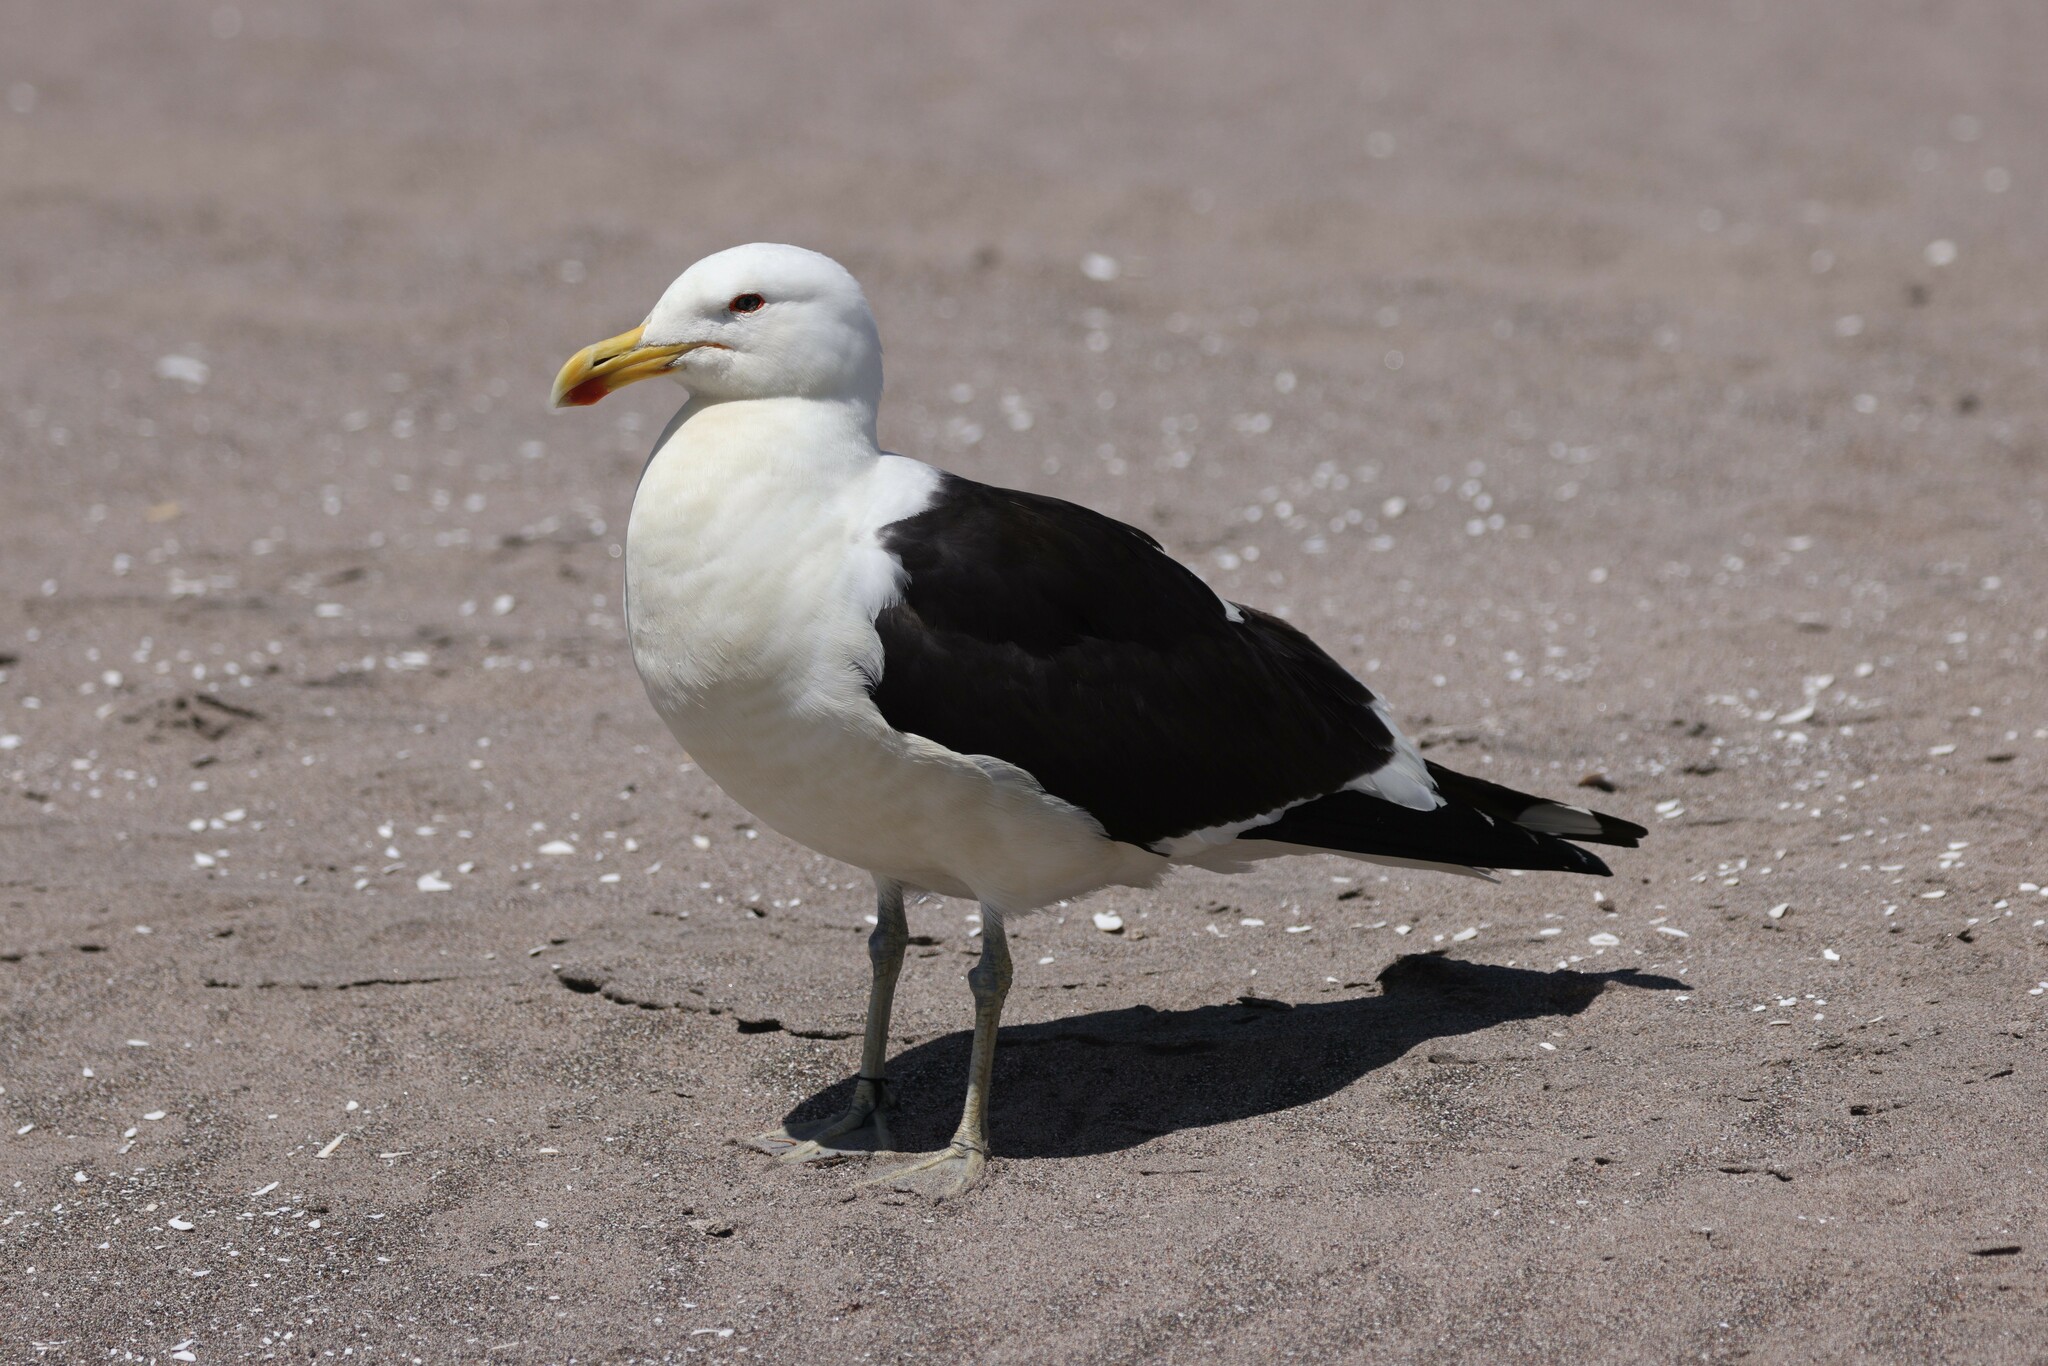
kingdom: Animalia
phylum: Chordata
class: Aves
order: Charadriiformes
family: Laridae
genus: Larus
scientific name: Larus dominicanus
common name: Kelp gull
